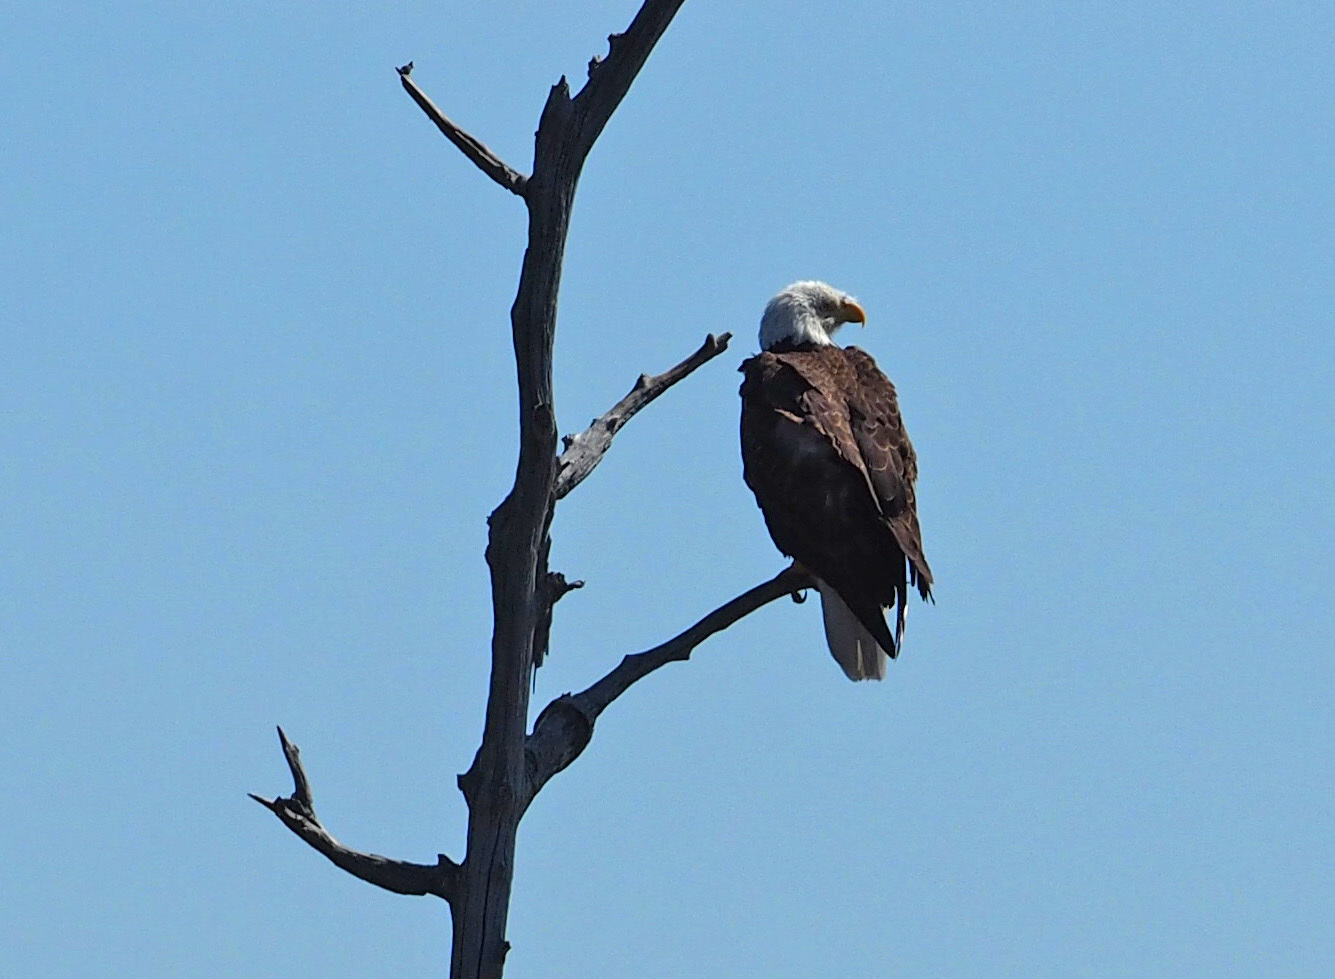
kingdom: Animalia
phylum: Chordata
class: Aves
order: Accipitriformes
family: Accipitridae
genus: Haliaeetus
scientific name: Haliaeetus leucocephalus
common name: Bald eagle
